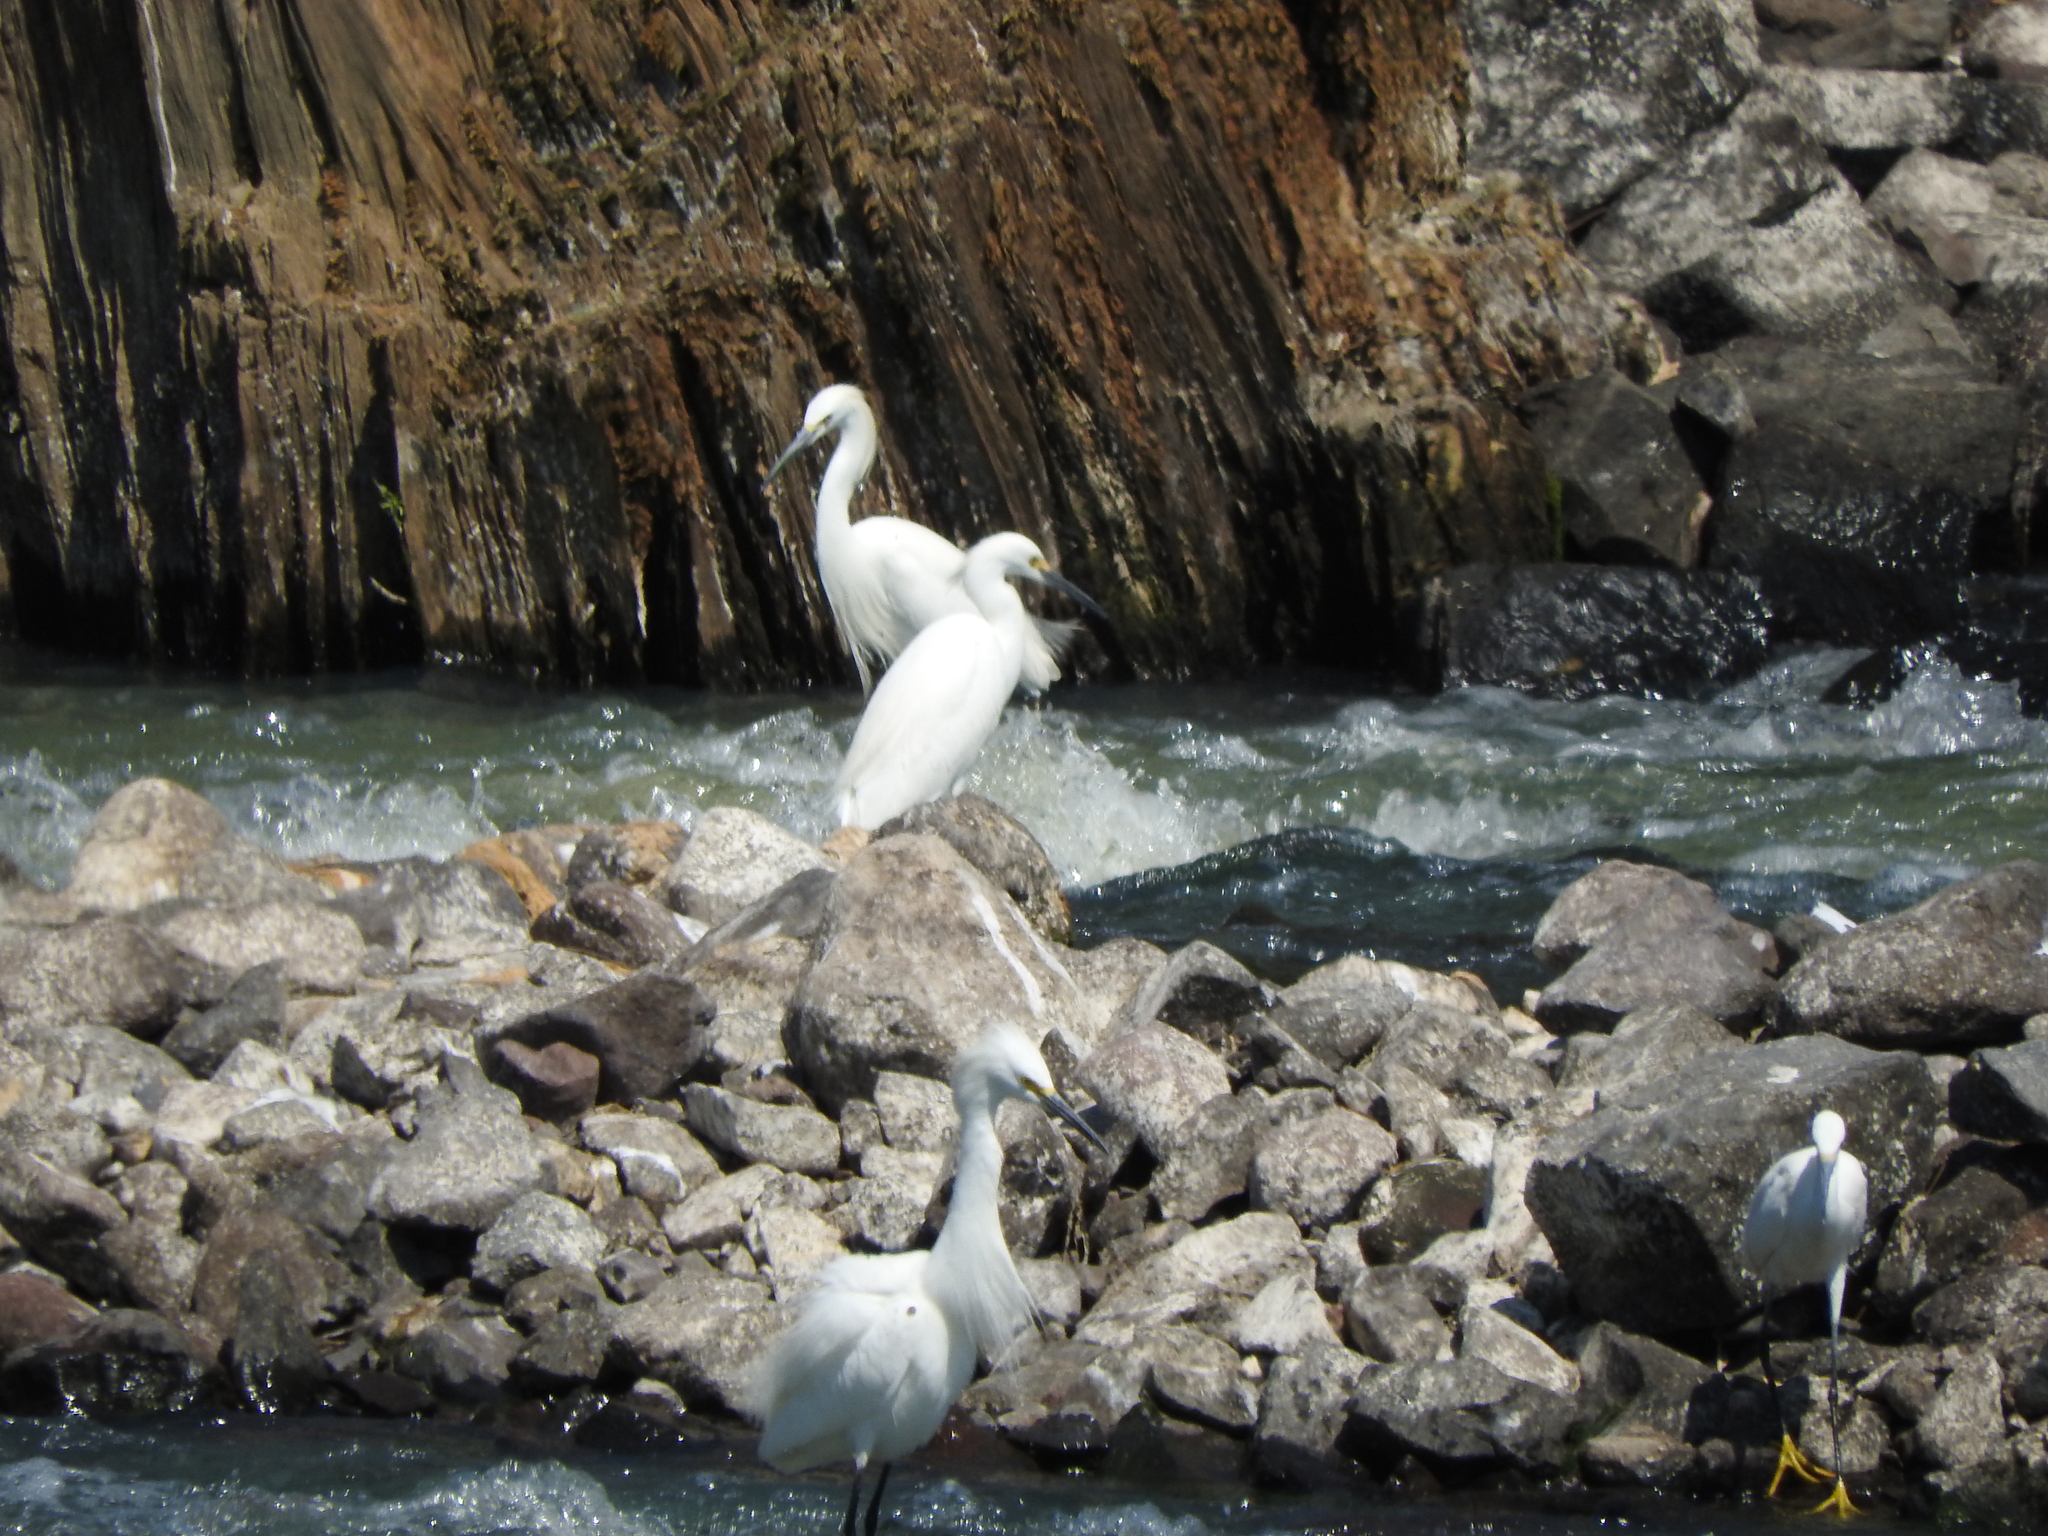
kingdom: Animalia
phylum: Chordata
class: Aves
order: Pelecaniformes
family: Ardeidae
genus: Egretta
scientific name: Egretta thula
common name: Snowy egret
